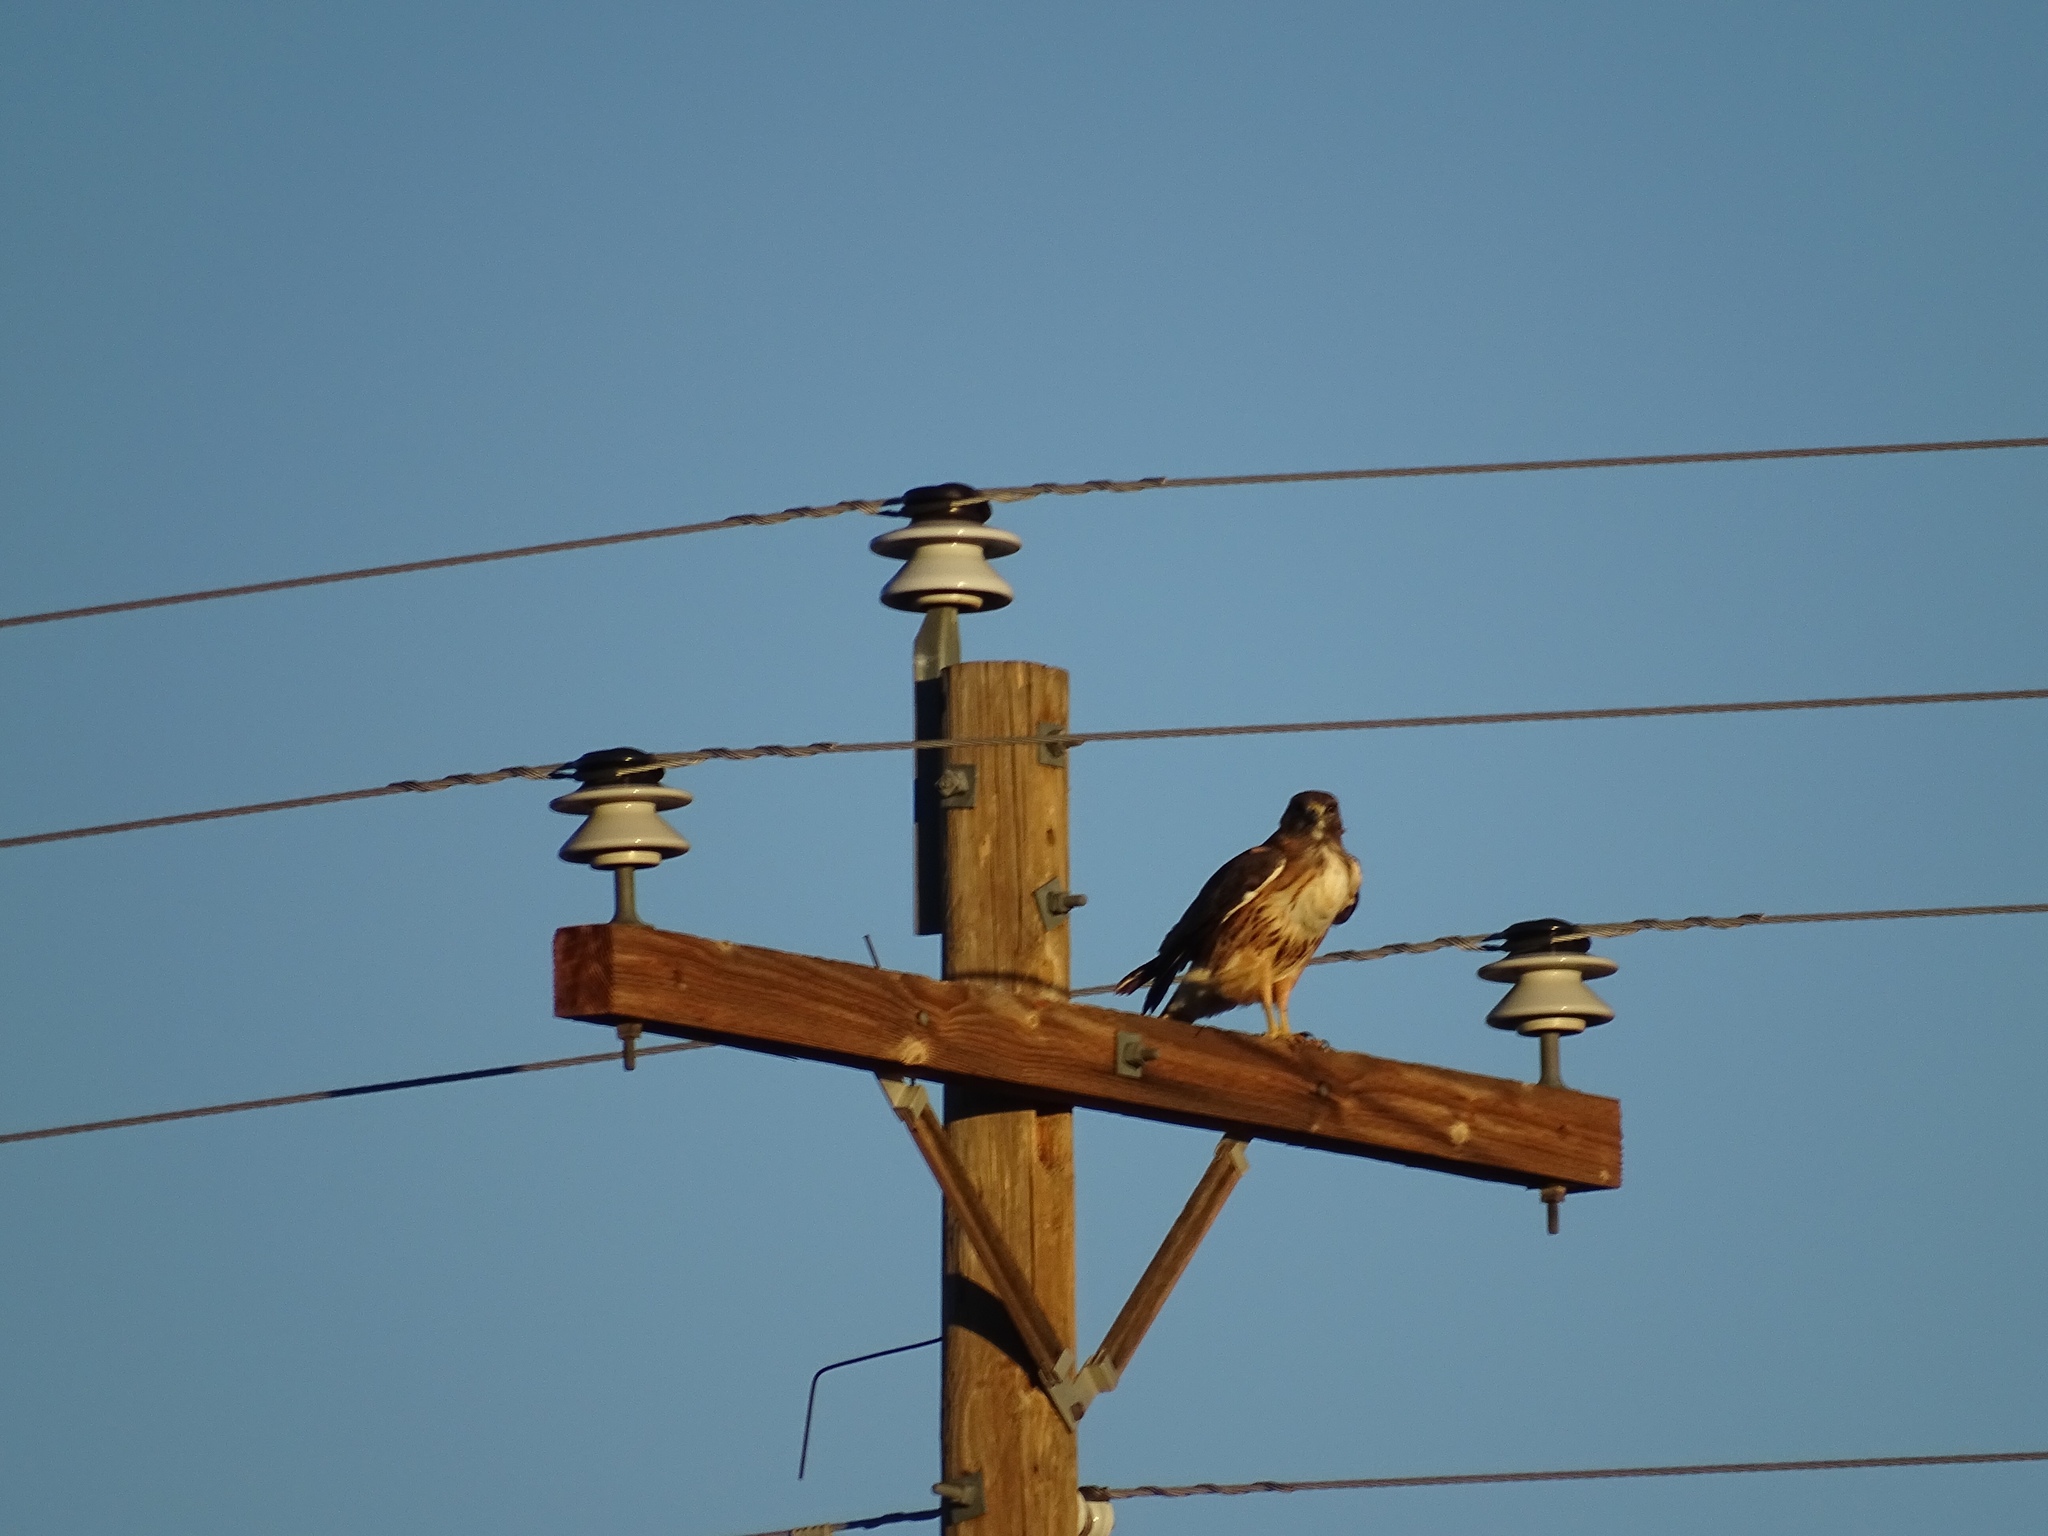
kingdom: Animalia
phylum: Chordata
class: Aves
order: Accipitriformes
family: Accipitridae
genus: Buteo
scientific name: Buteo jamaicensis
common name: Red-tailed hawk
